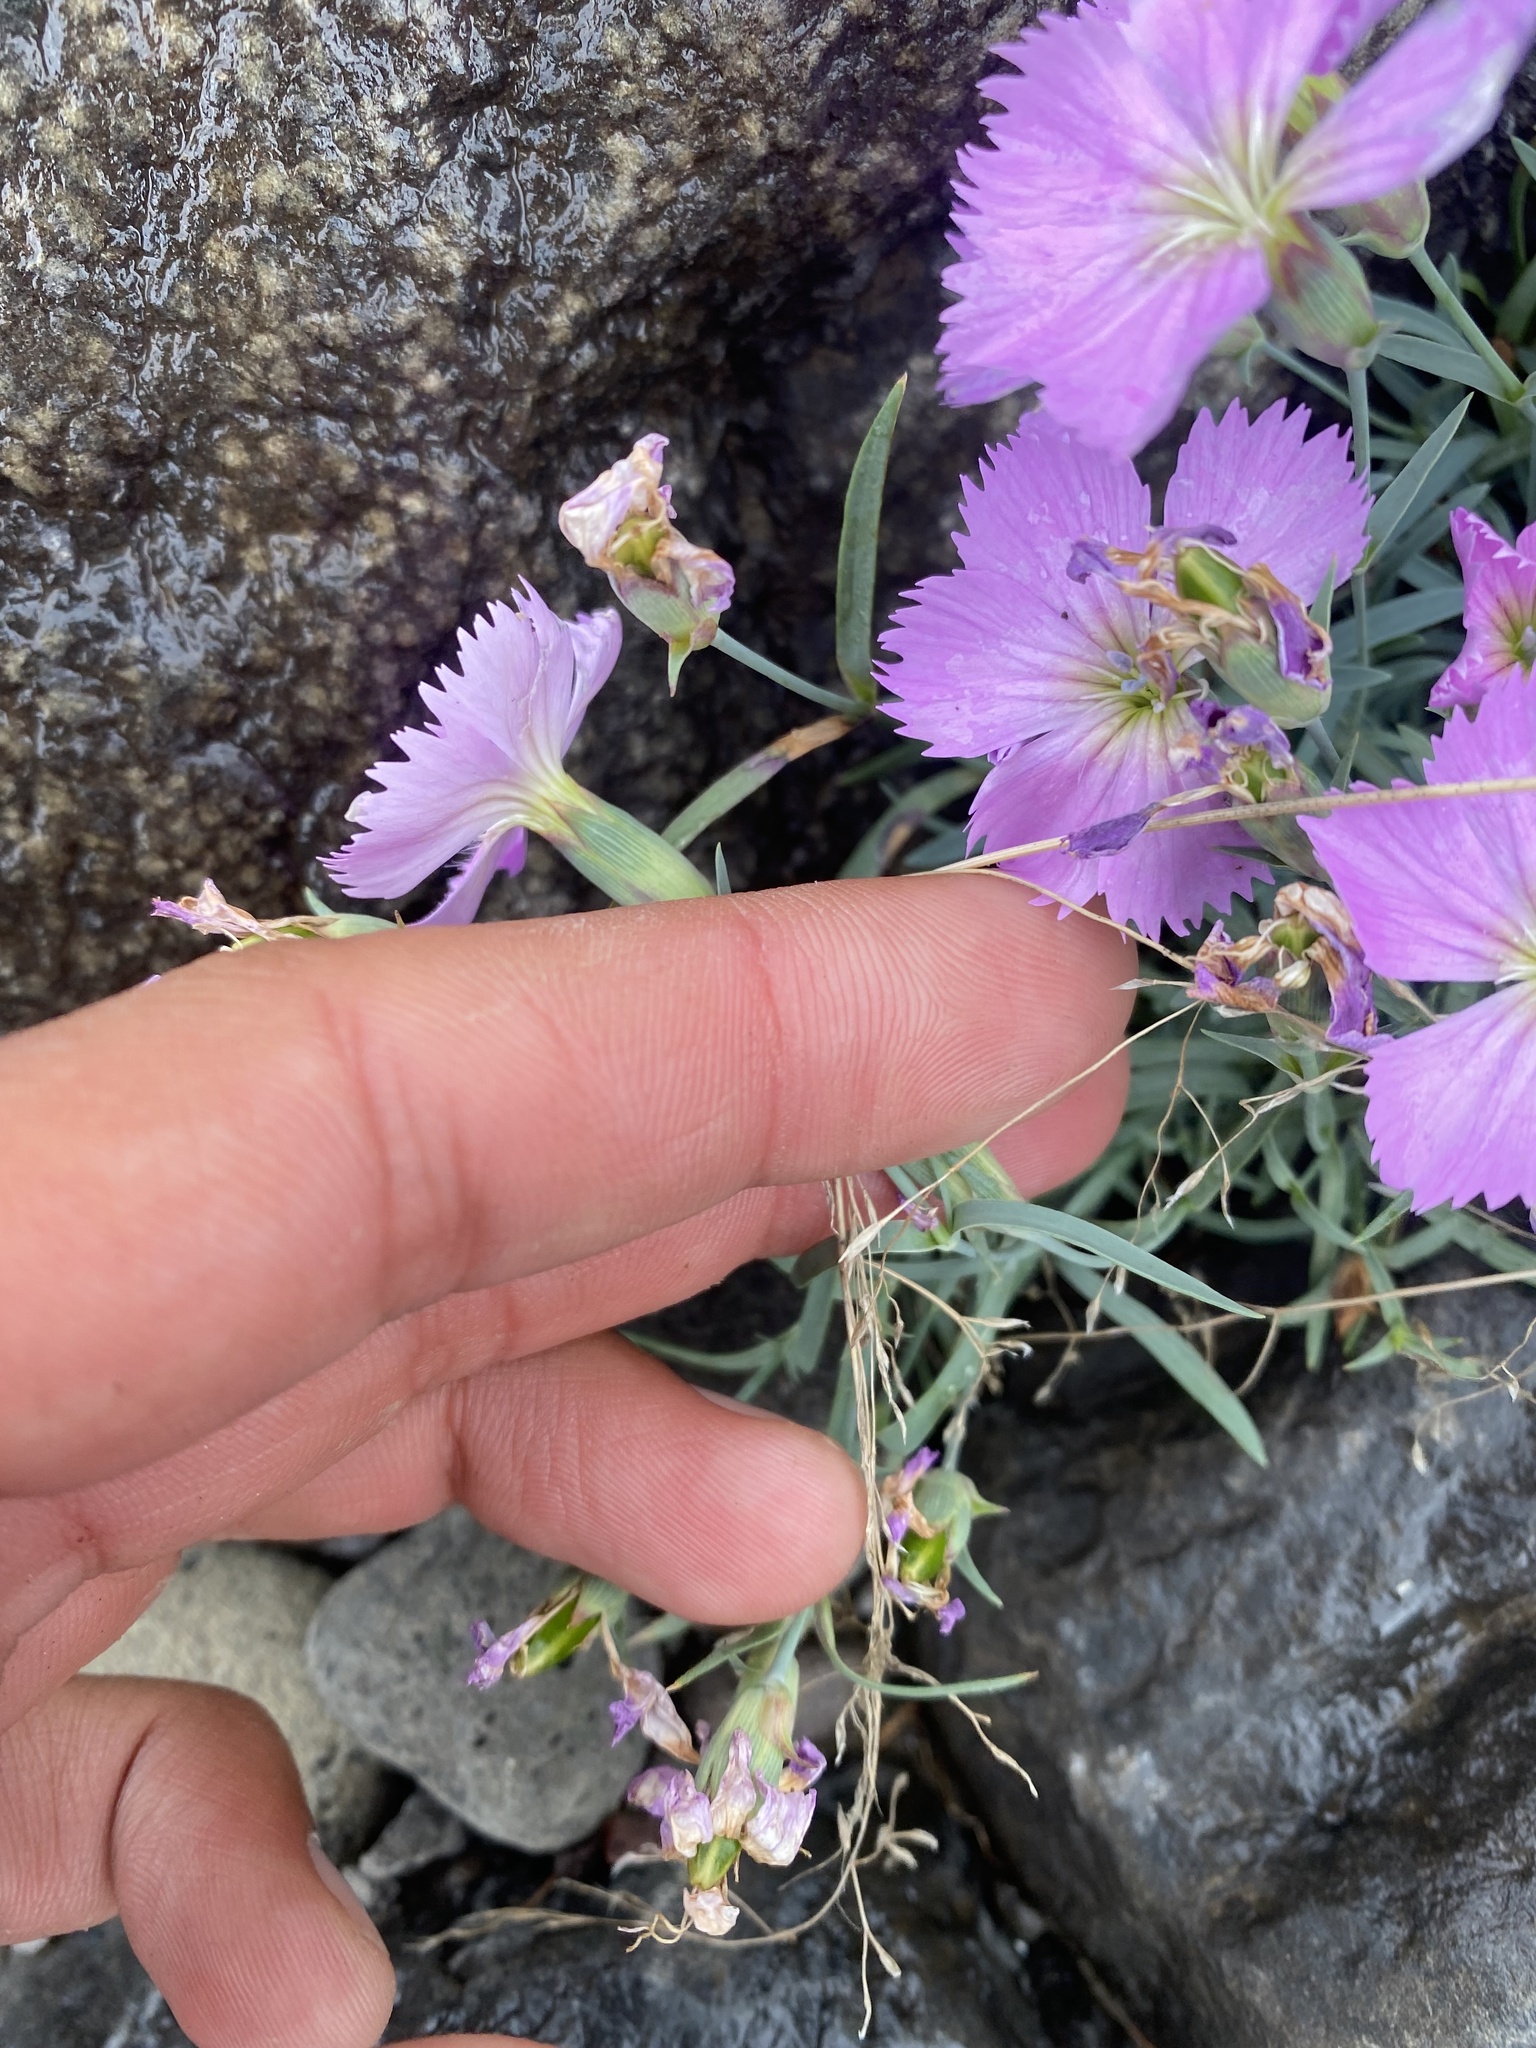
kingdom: Plantae
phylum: Tracheophyta
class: Magnoliopsida
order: Caryophyllales
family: Caryophyllaceae
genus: Dianthus
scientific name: Dianthus repens
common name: Northern pink
